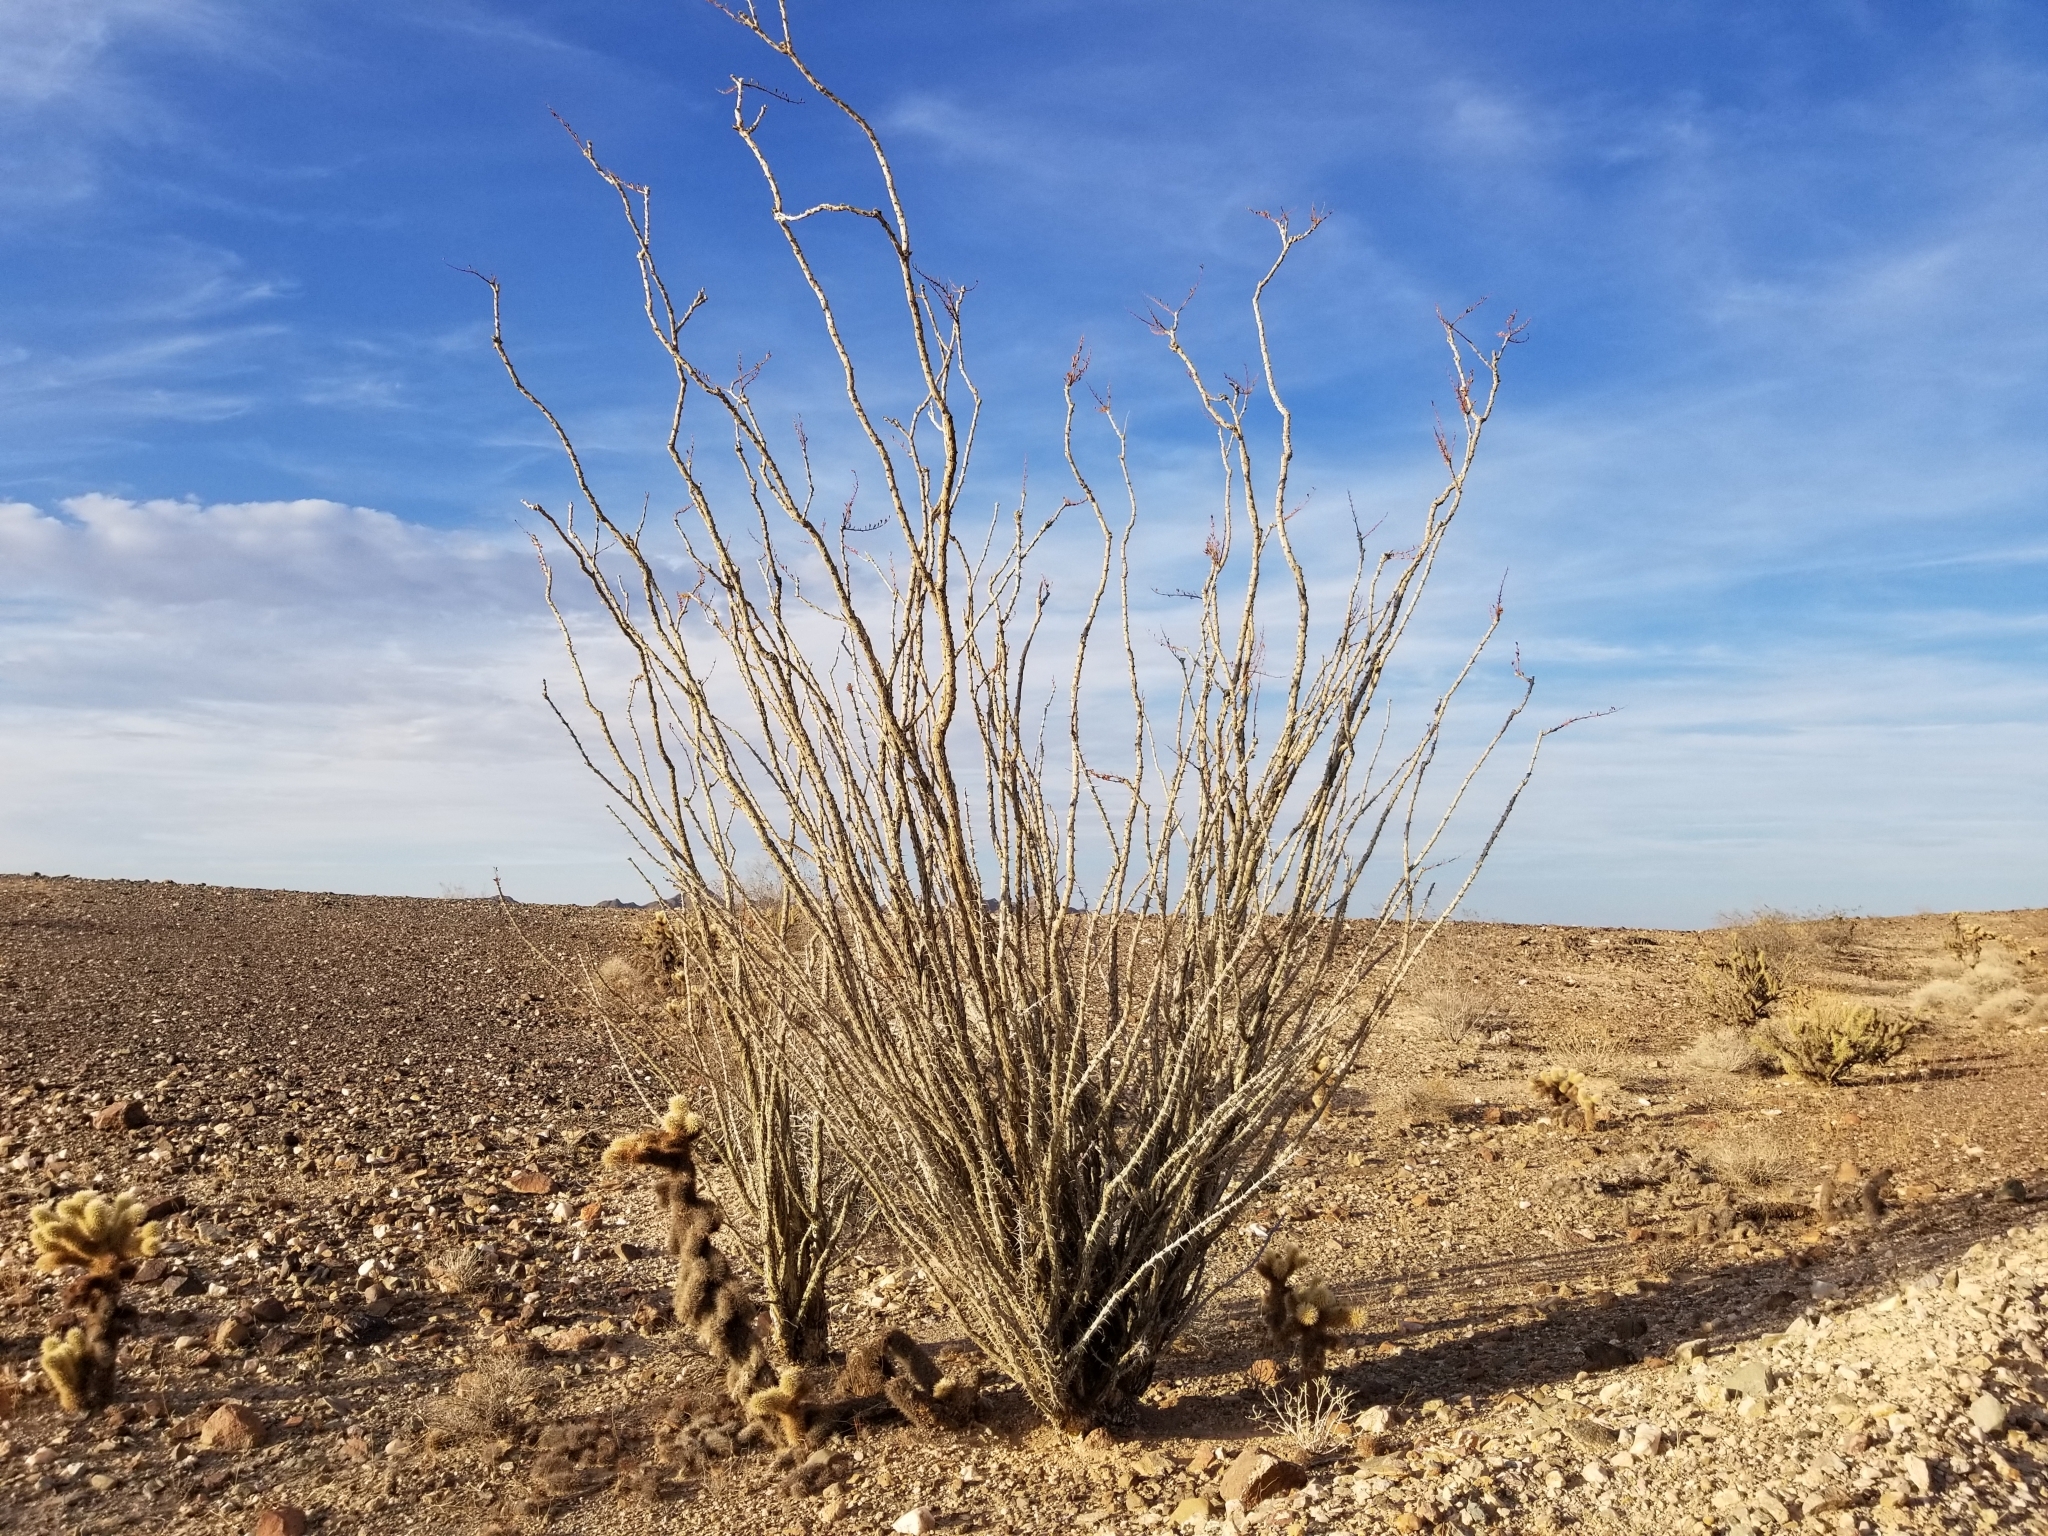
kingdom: Plantae
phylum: Tracheophyta
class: Magnoliopsida
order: Ericales
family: Fouquieriaceae
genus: Fouquieria
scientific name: Fouquieria splendens
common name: Vine-cactus
